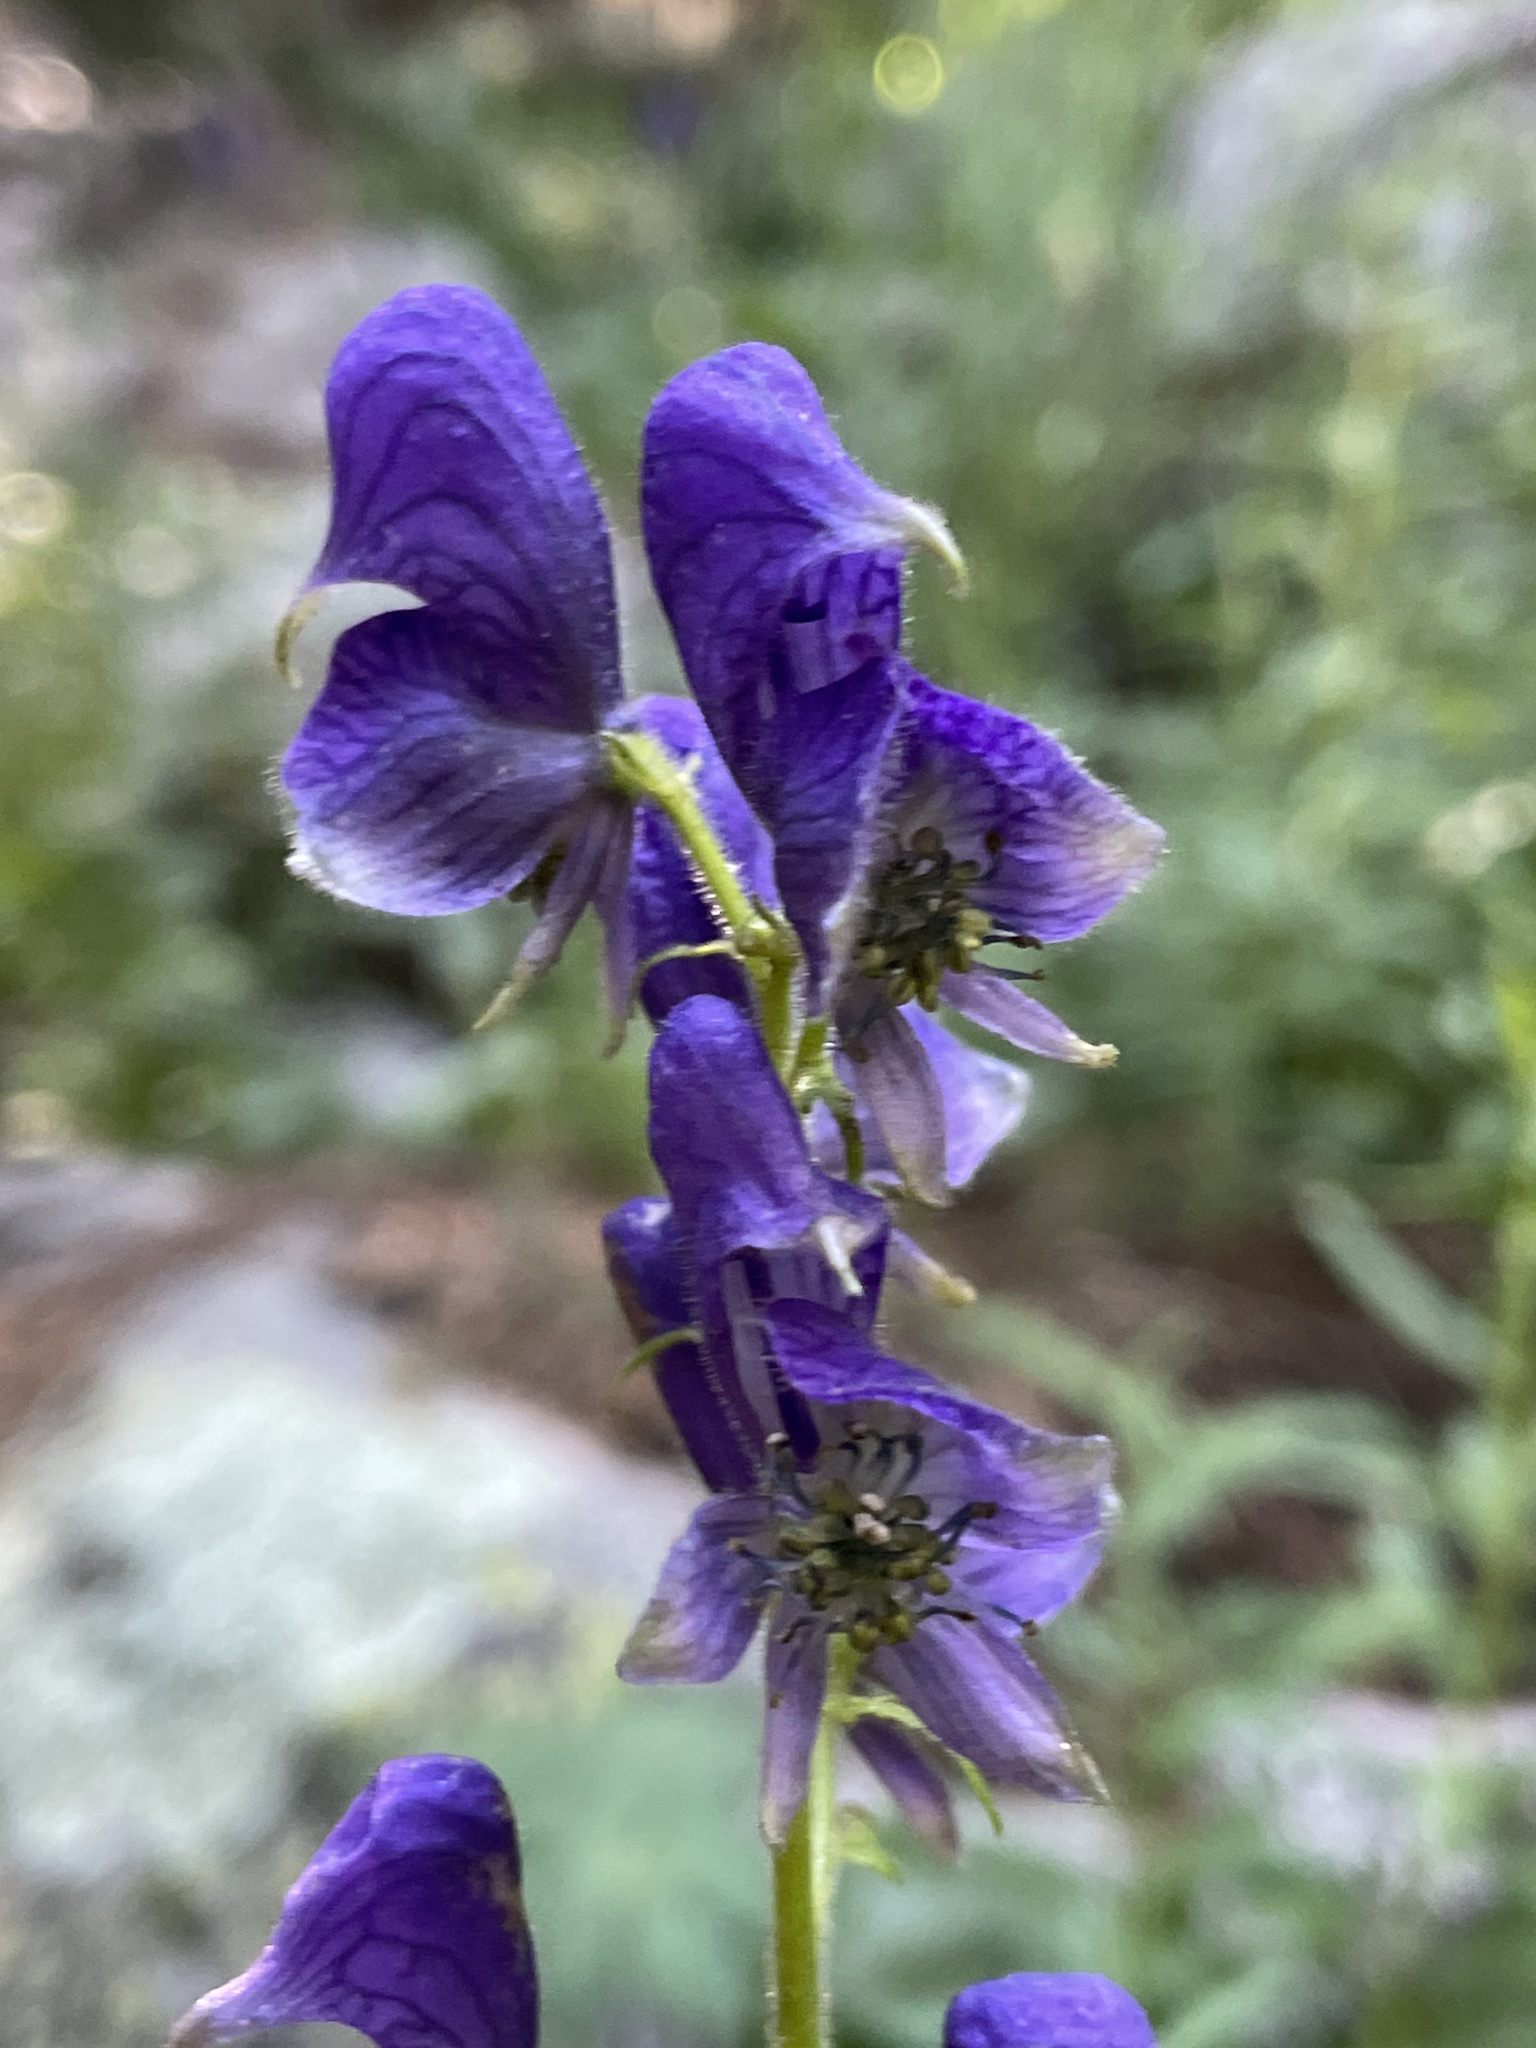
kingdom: Plantae
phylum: Tracheophyta
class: Magnoliopsida
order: Ranunculales
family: Ranunculaceae
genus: Aconitum
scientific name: Aconitum columbianum
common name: Columbia aconite
